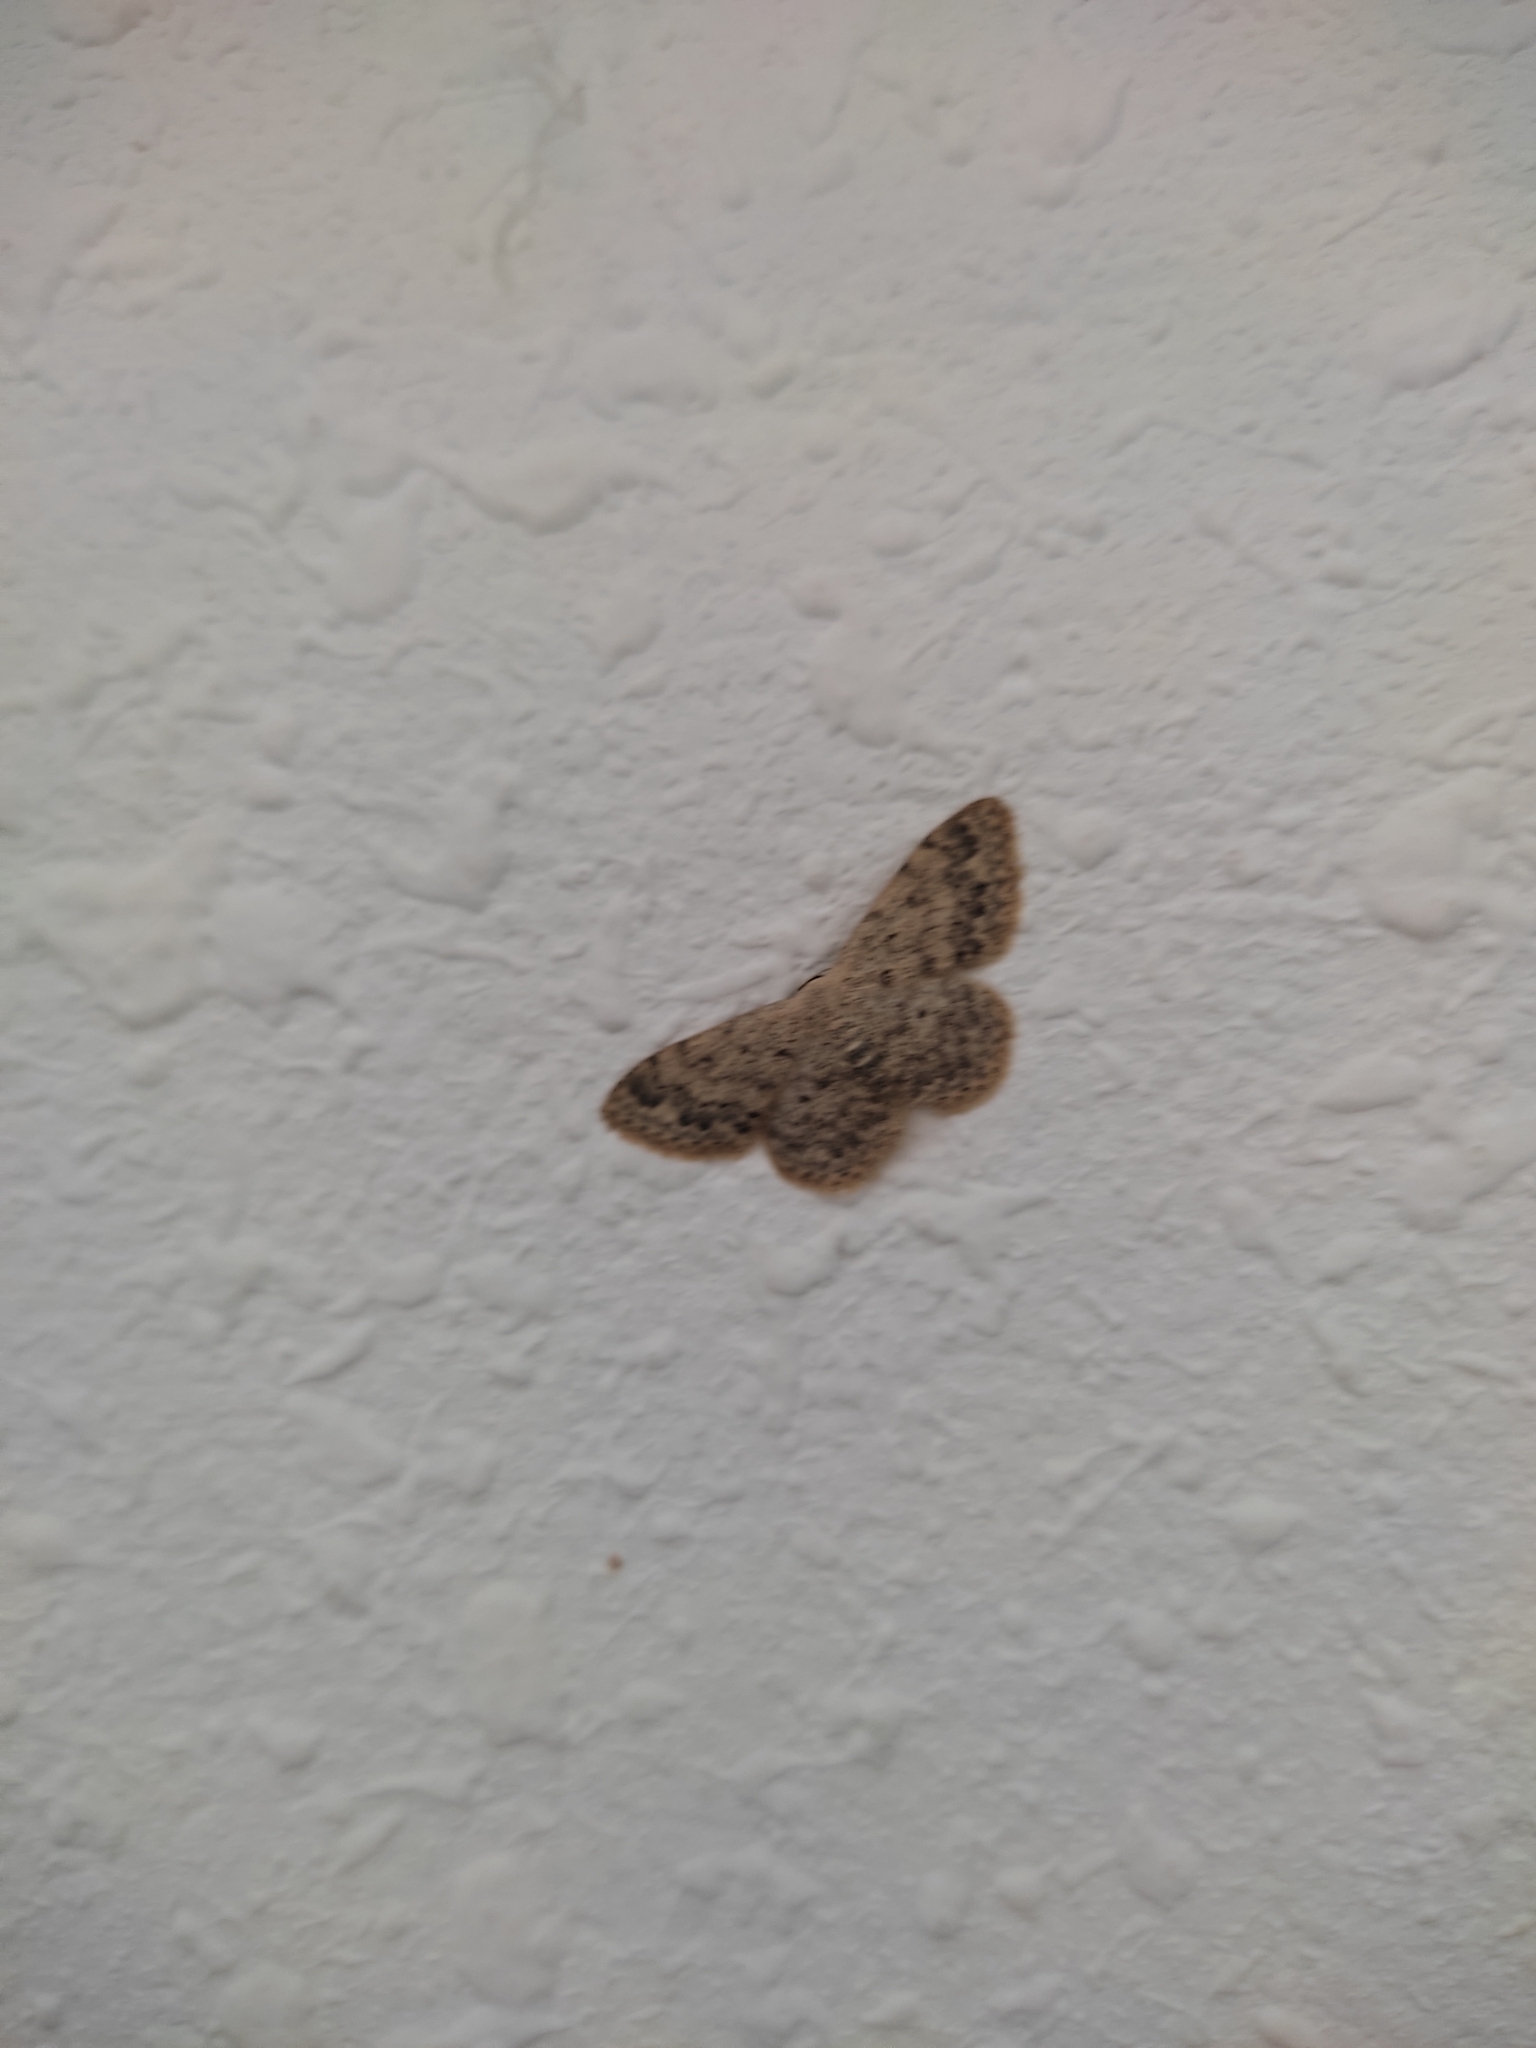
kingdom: Animalia
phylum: Arthropoda
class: Insecta
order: Lepidoptera
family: Geometridae
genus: Scopula
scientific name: Scopula marginepunctata
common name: Mullein wave
